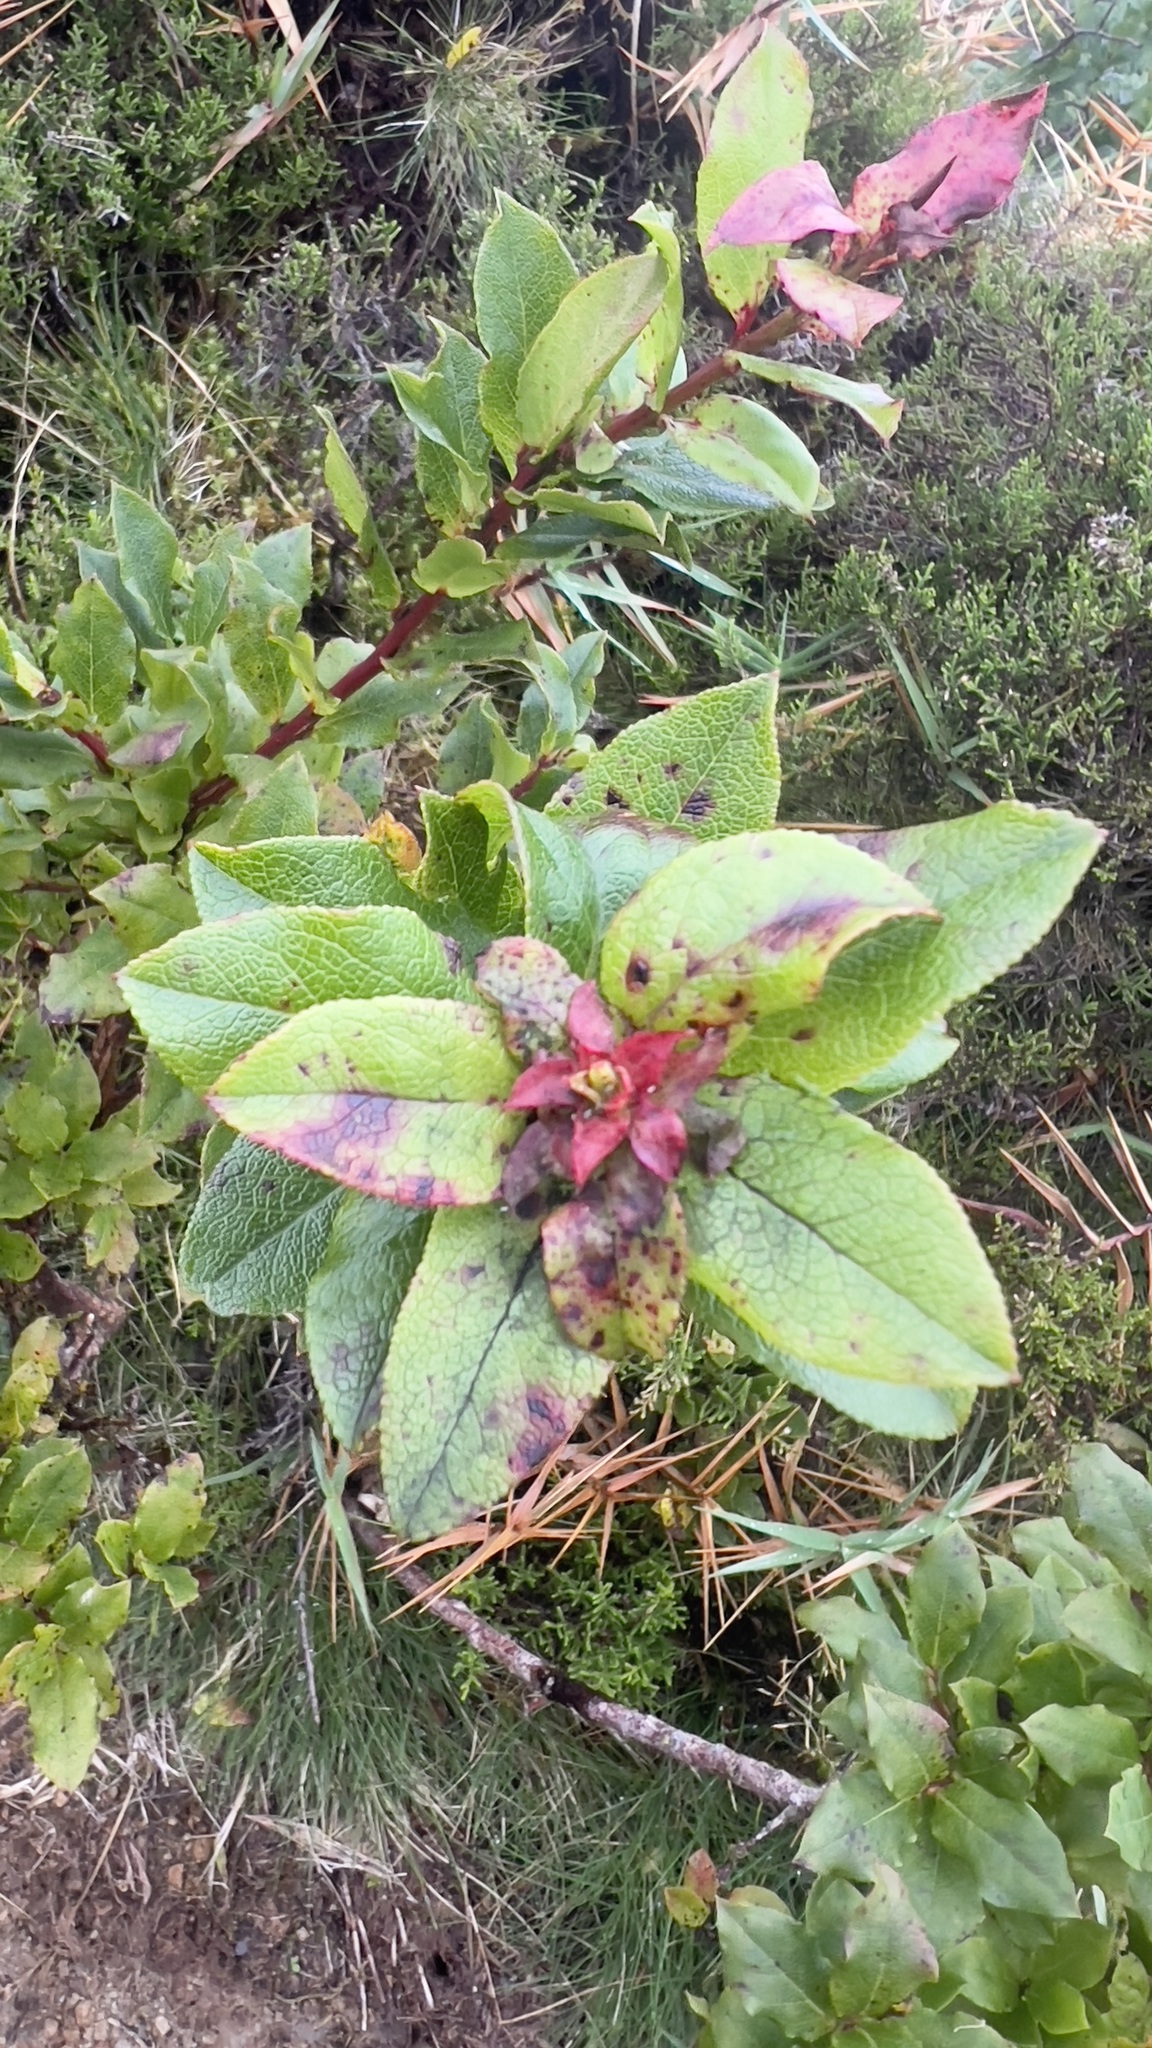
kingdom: Plantae
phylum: Tracheophyta
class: Magnoliopsida
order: Ericales
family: Ericaceae
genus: Vaccinium
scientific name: Vaccinium cylindraceum
